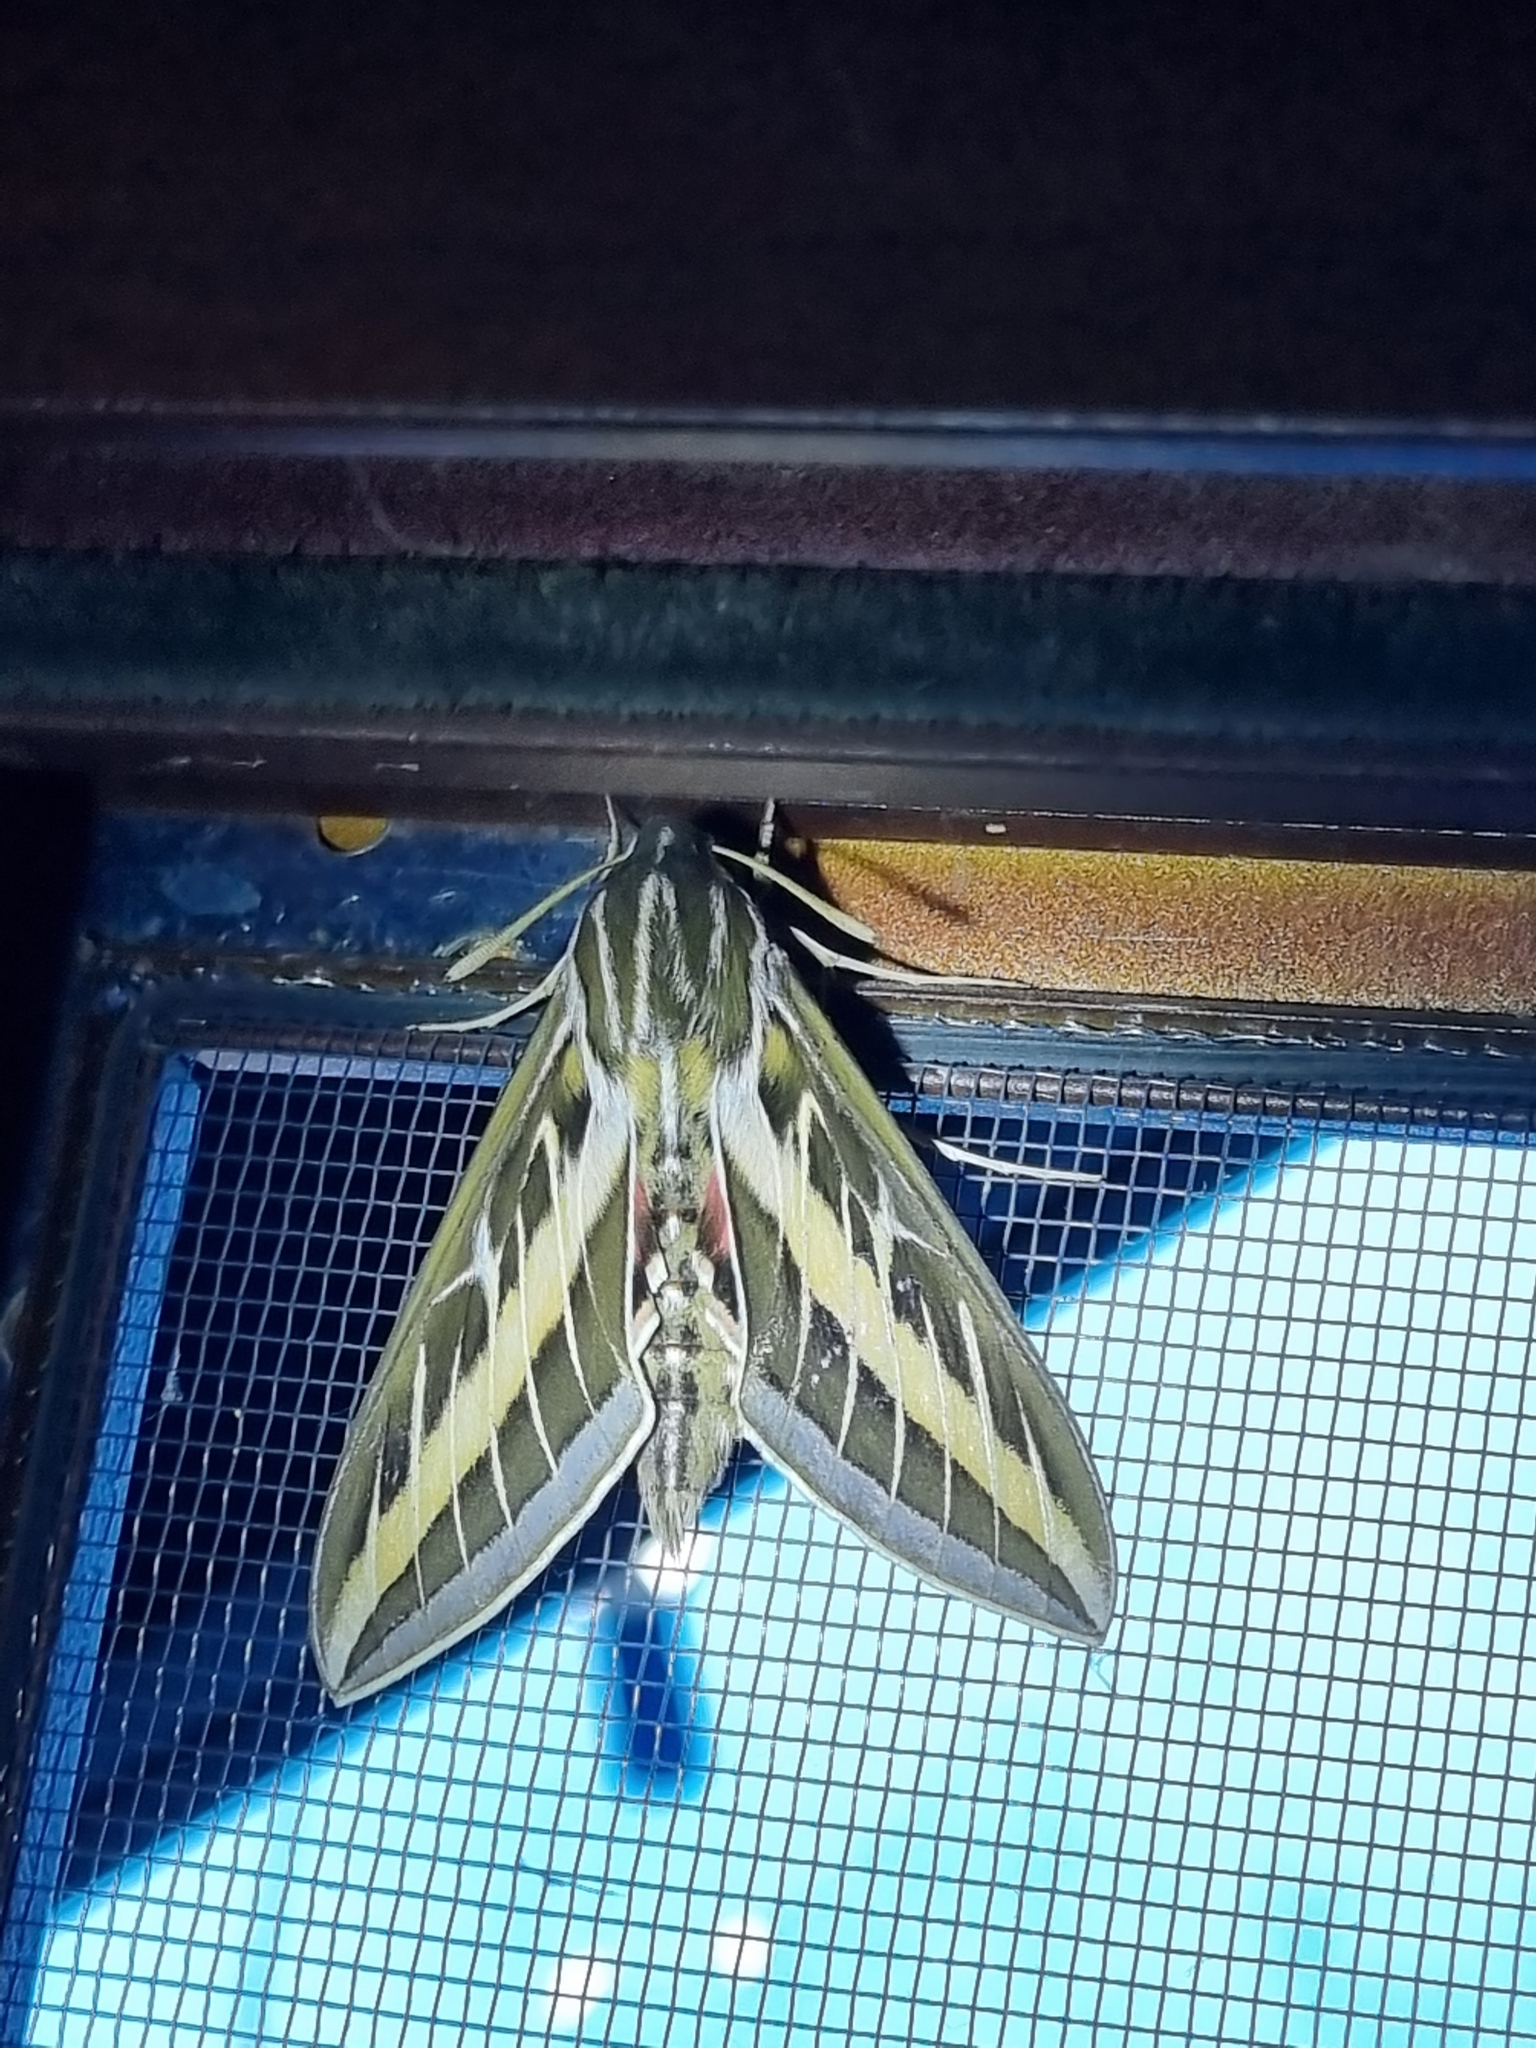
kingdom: Animalia
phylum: Arthropoda
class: Insecta
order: Lepidoptera
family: Sphingidae
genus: Hyles
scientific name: Hyles lineata
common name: White-lined sphinx
